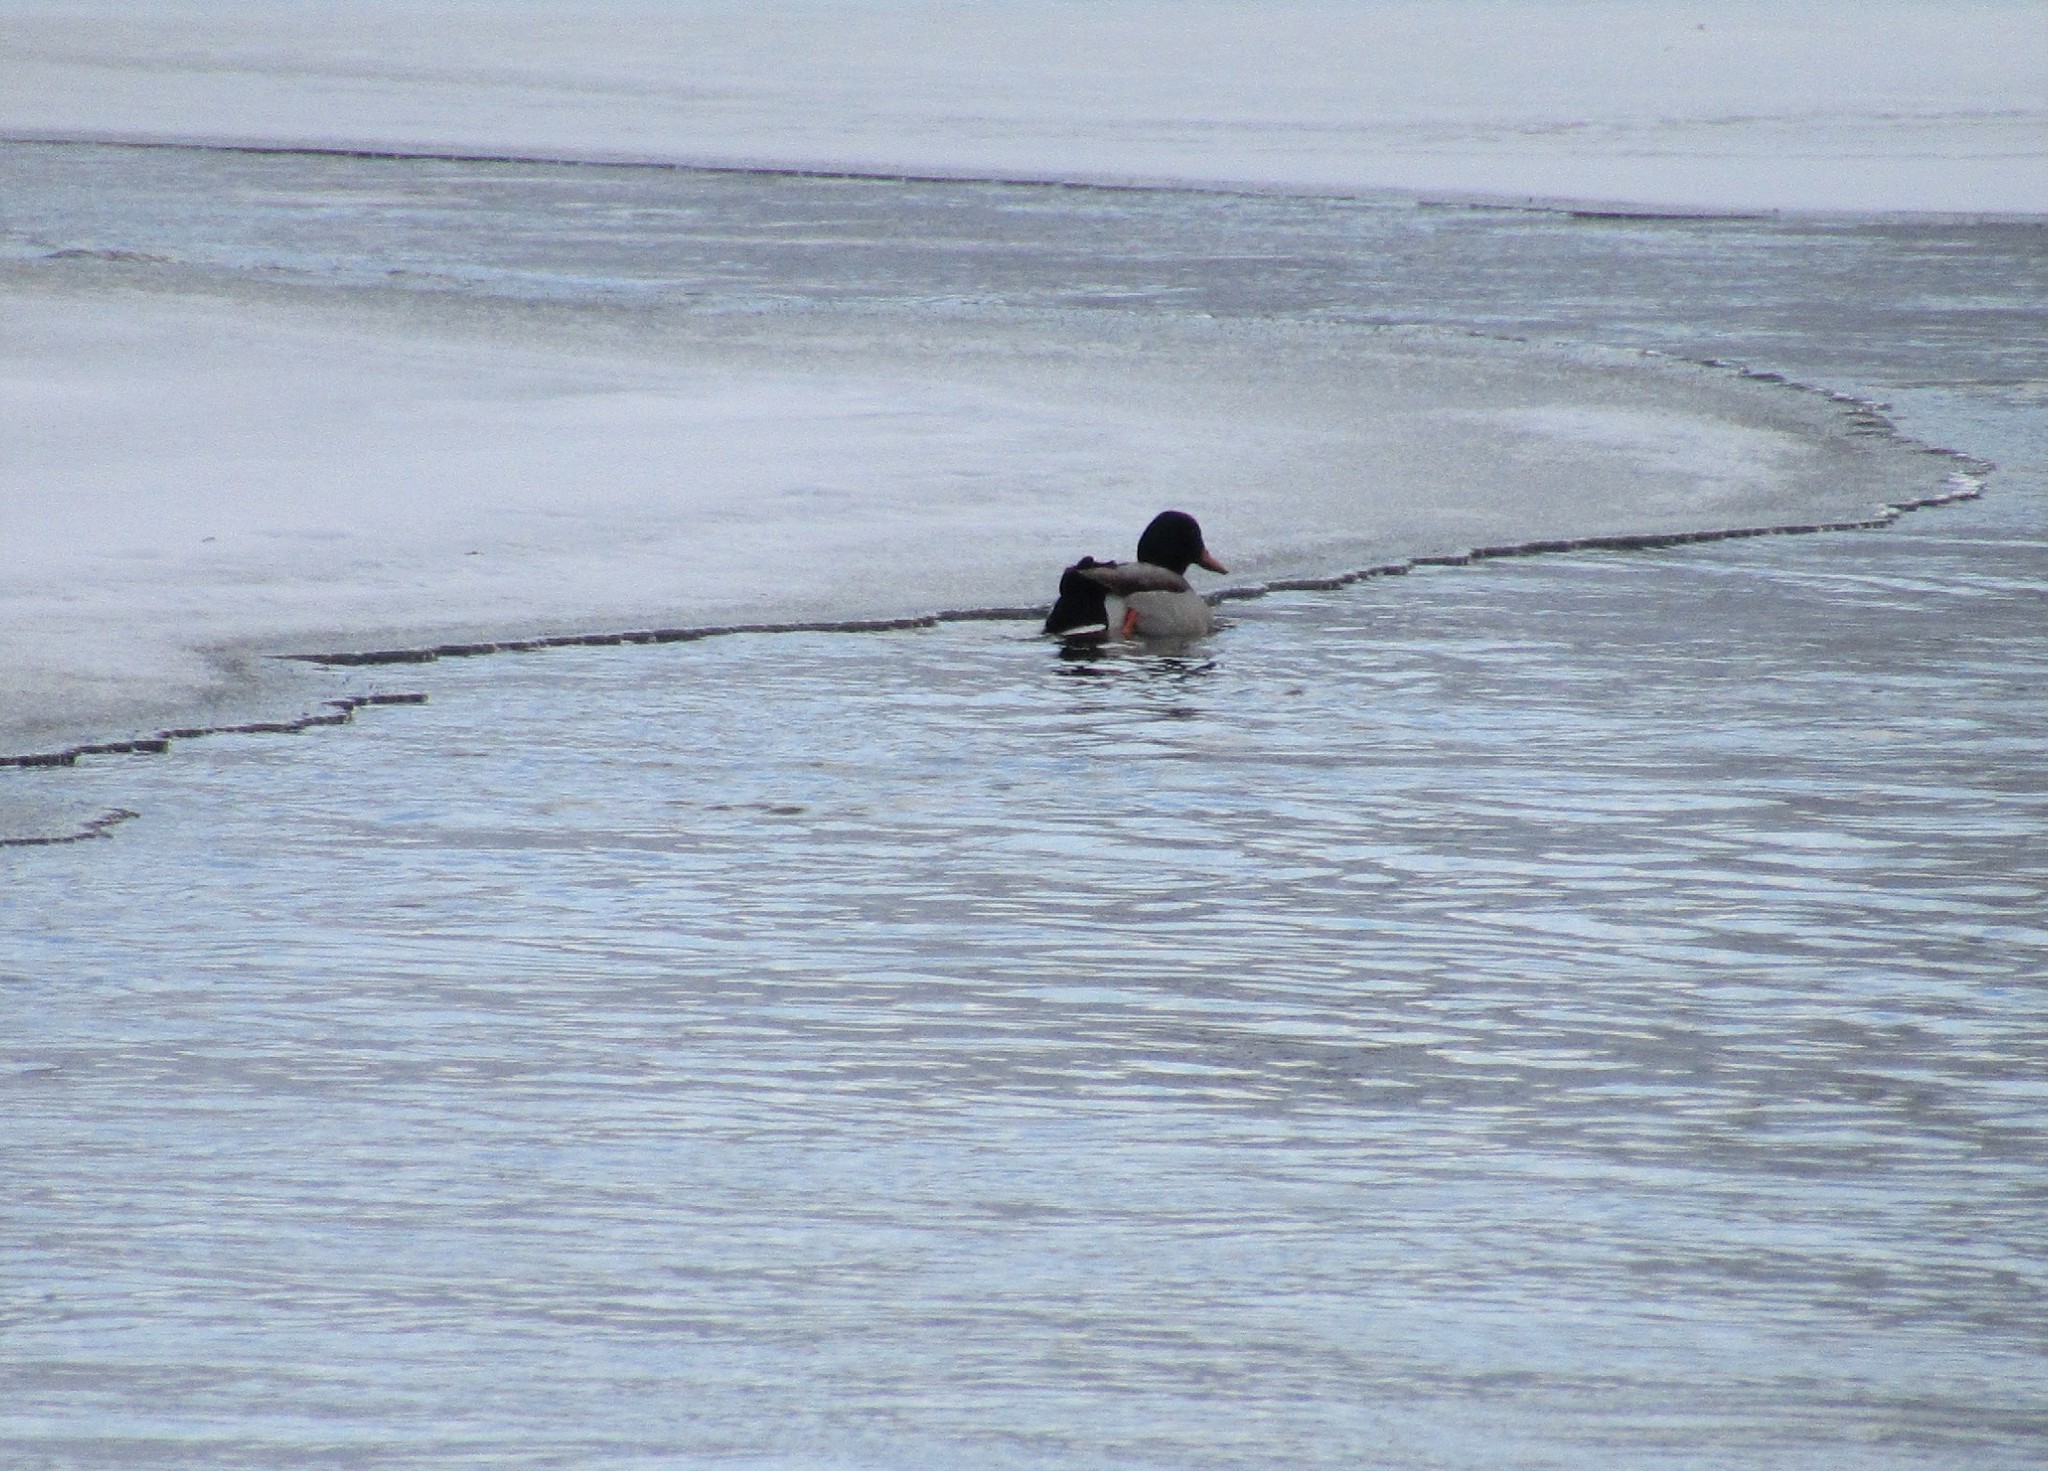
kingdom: Animalia
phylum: Chordata
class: Aves
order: Anseriformes
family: Anatidae
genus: Anas
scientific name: Anas platyrhynchos
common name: Mallard
